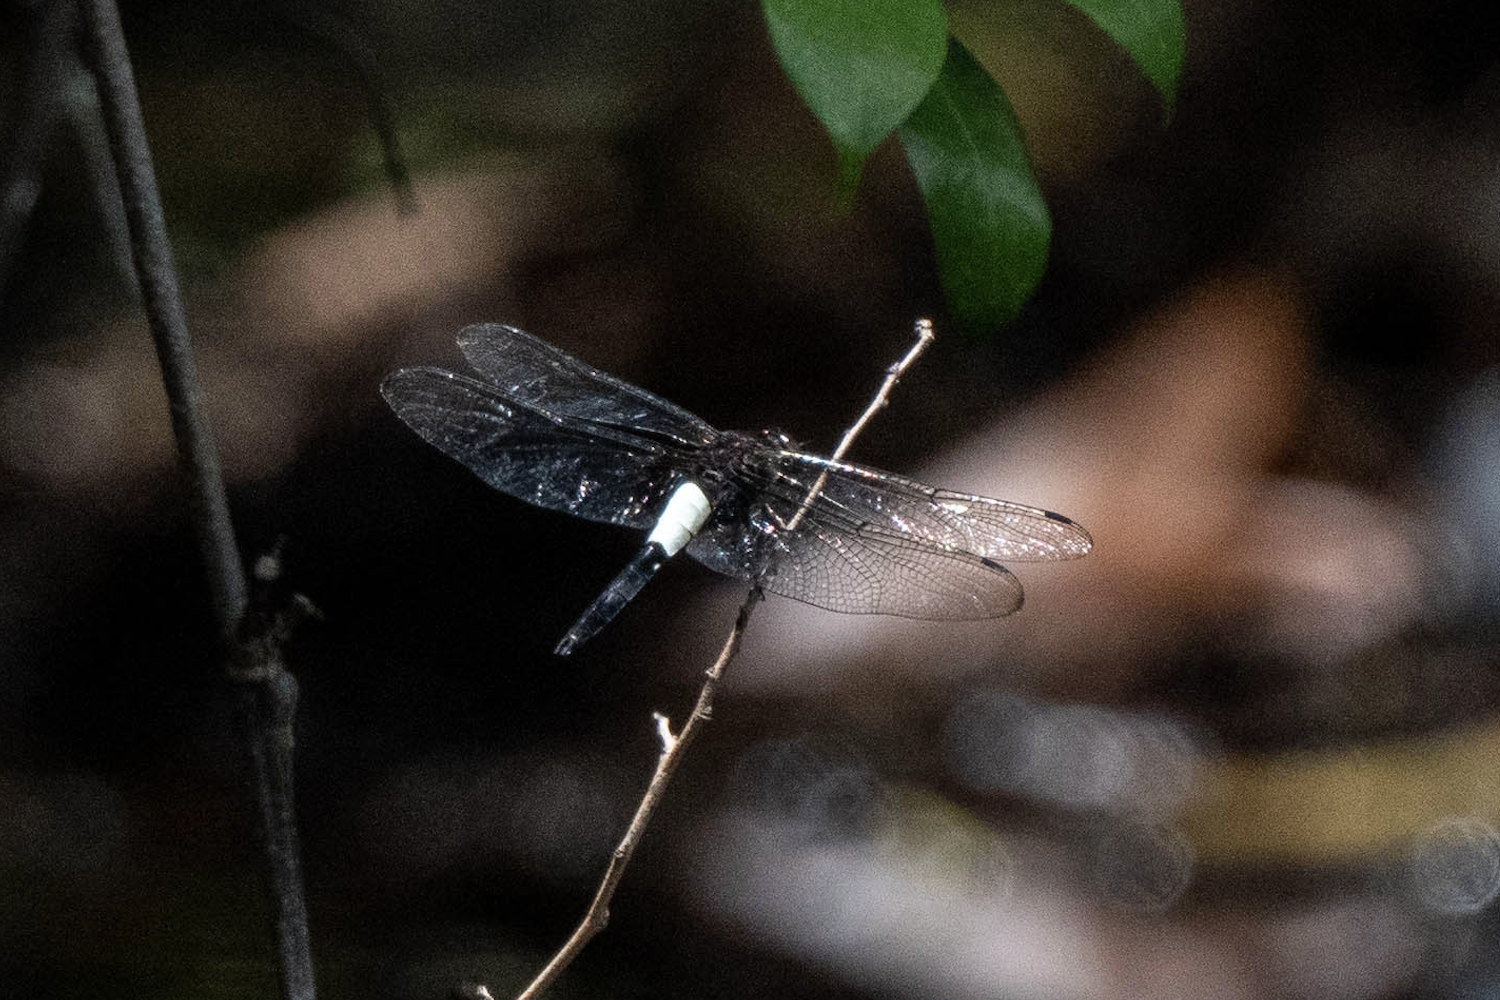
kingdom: Animalia
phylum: Arthropoda
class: Insecta
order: Odonata
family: Libellulidae
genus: Pseudothemis
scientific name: Pseudothemis zonata
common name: Pied skimmer
